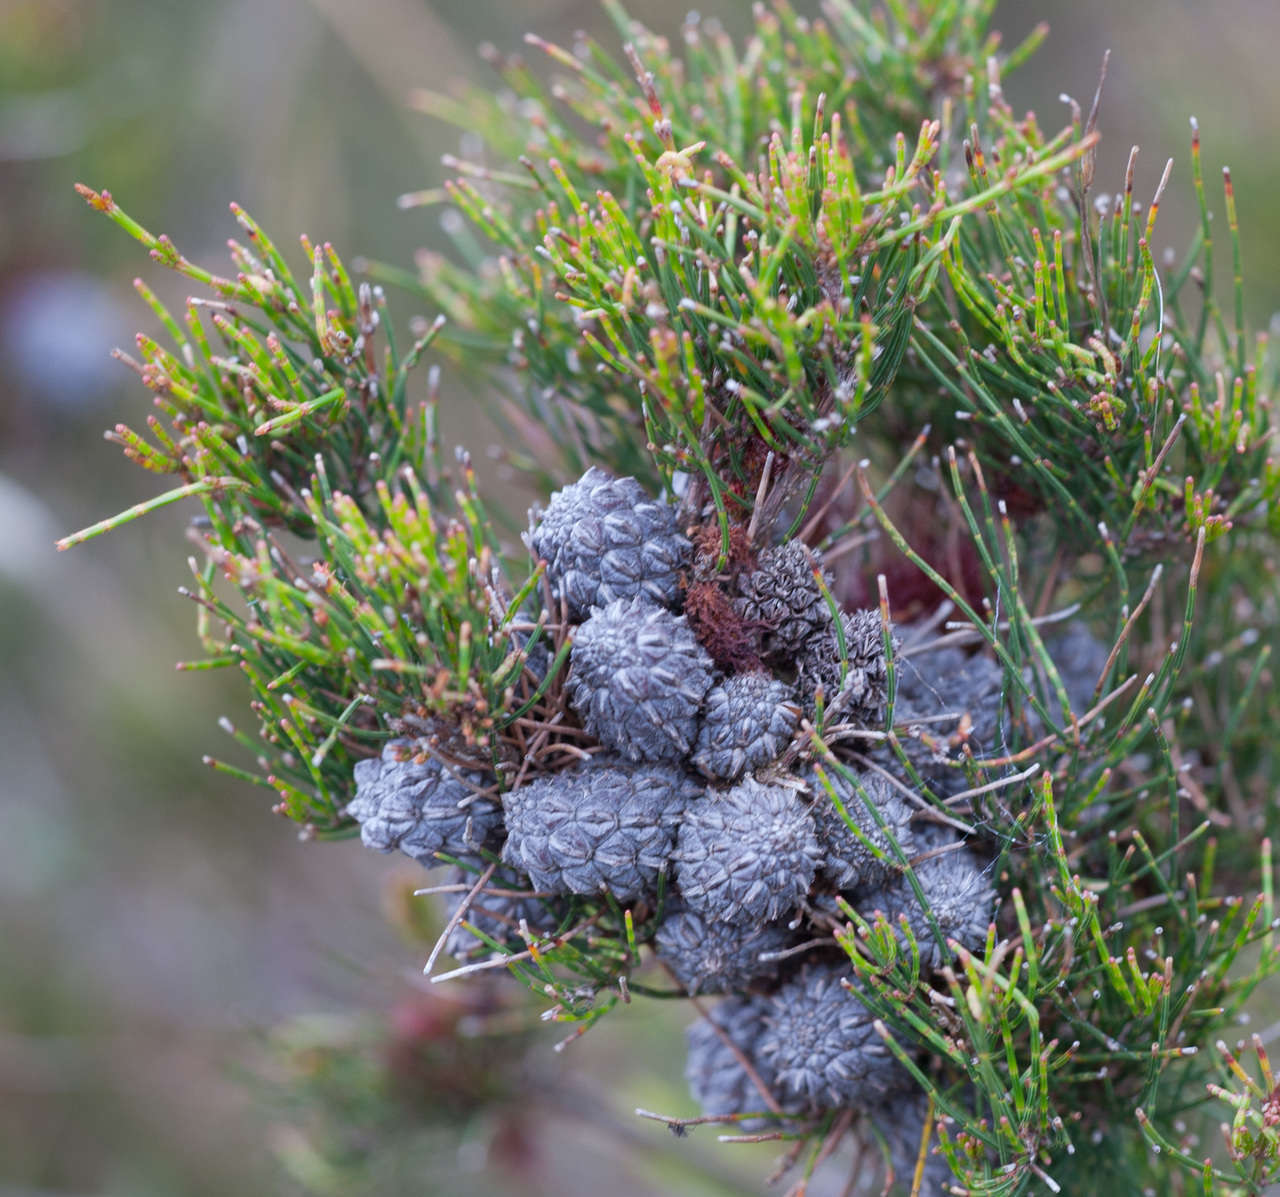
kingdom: Plantae
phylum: Tracheophyta
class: Magnoliopsida
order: Fagales
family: Casuarinaceae
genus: Allocasuarina
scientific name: Allocasuarina misera
